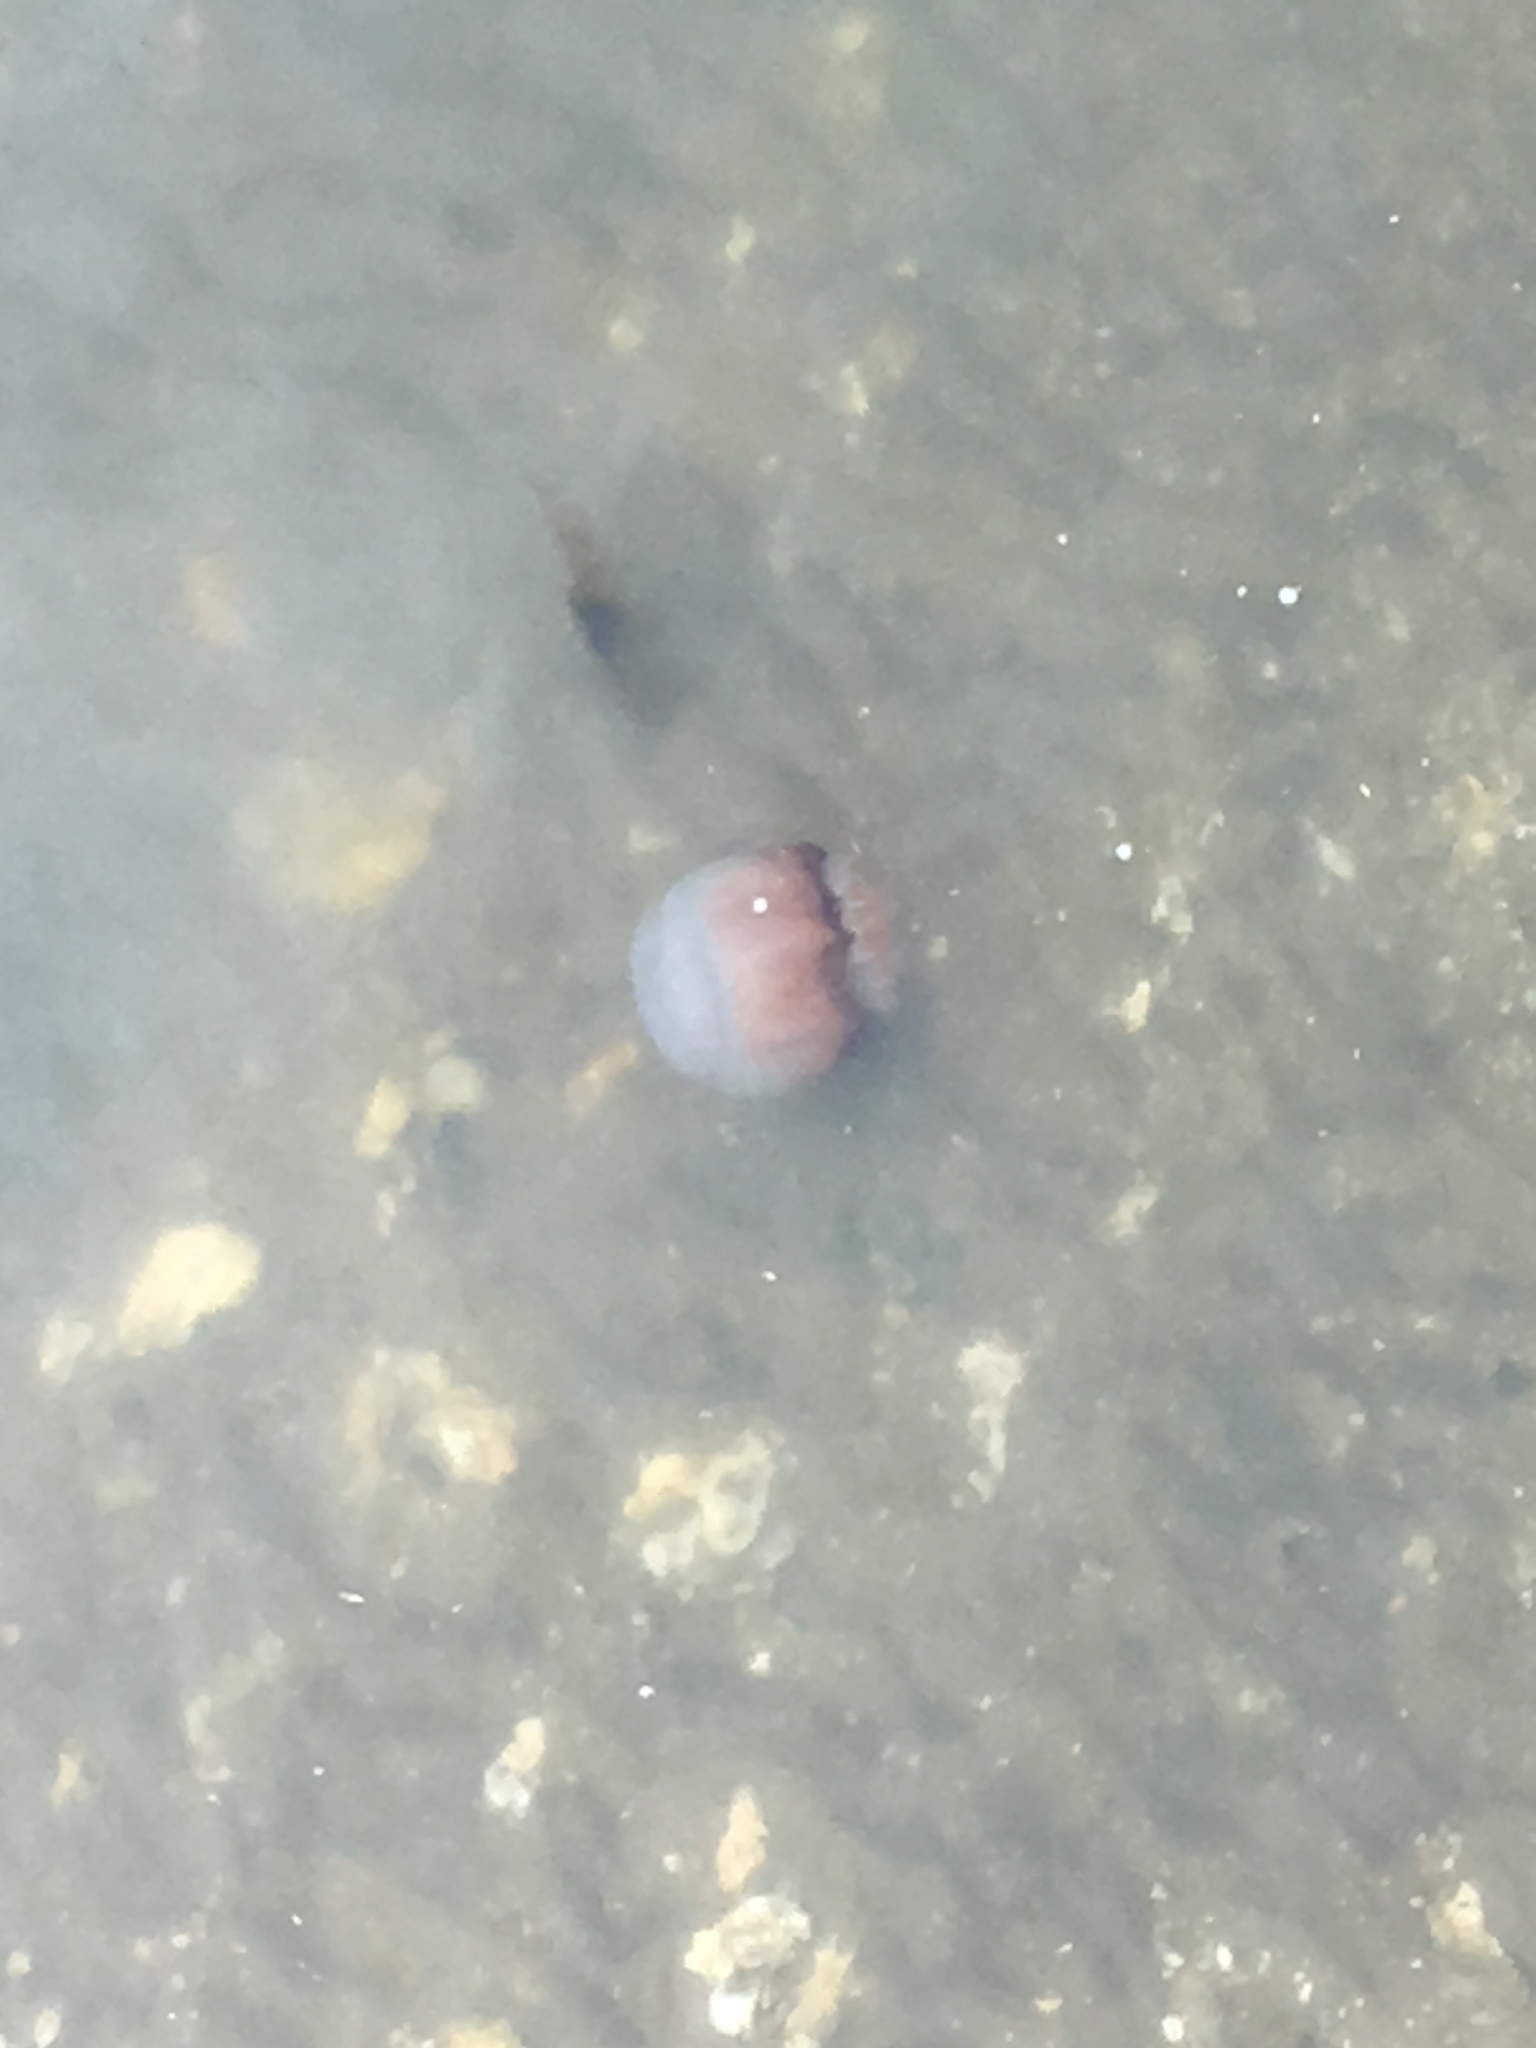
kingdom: Animalia
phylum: Cnidaria
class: Scyphozoa
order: Rhizostomeae
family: Stomolophidae
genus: Stomolophus
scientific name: Stomolophus meleagris
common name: Cabbagehead
